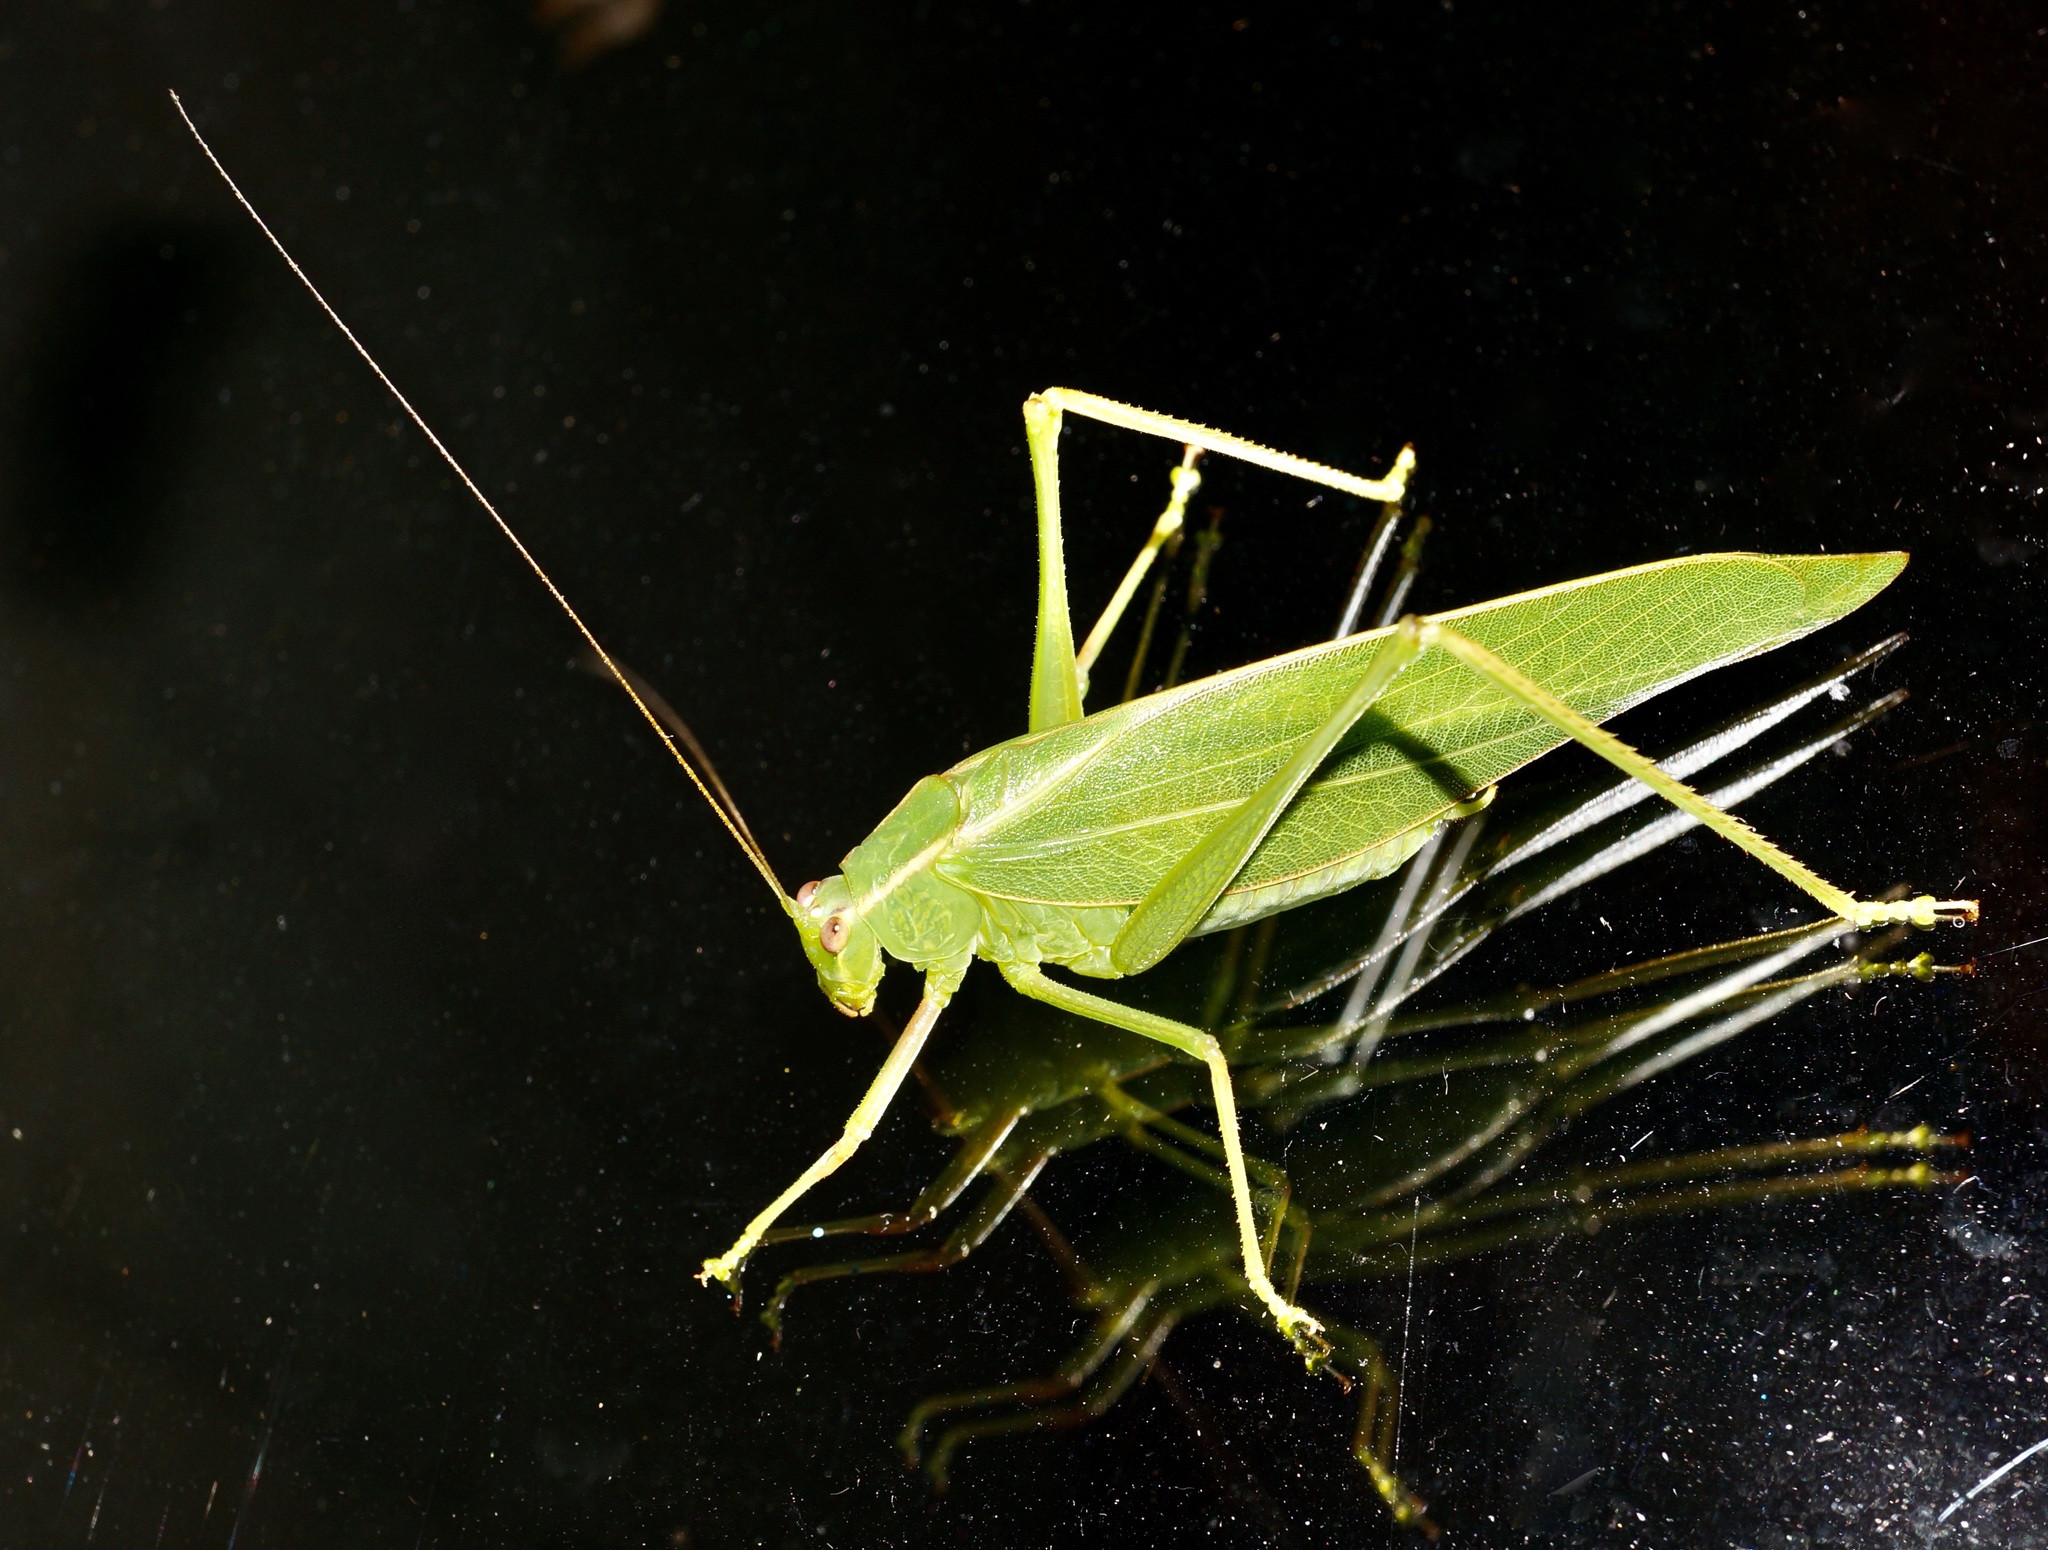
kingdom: Animalia
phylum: Arthropoda
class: Insecta
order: Orthoptera
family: Tettigoniidae
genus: Caedicia
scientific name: Caedicia simplex
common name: Common garden katydid
